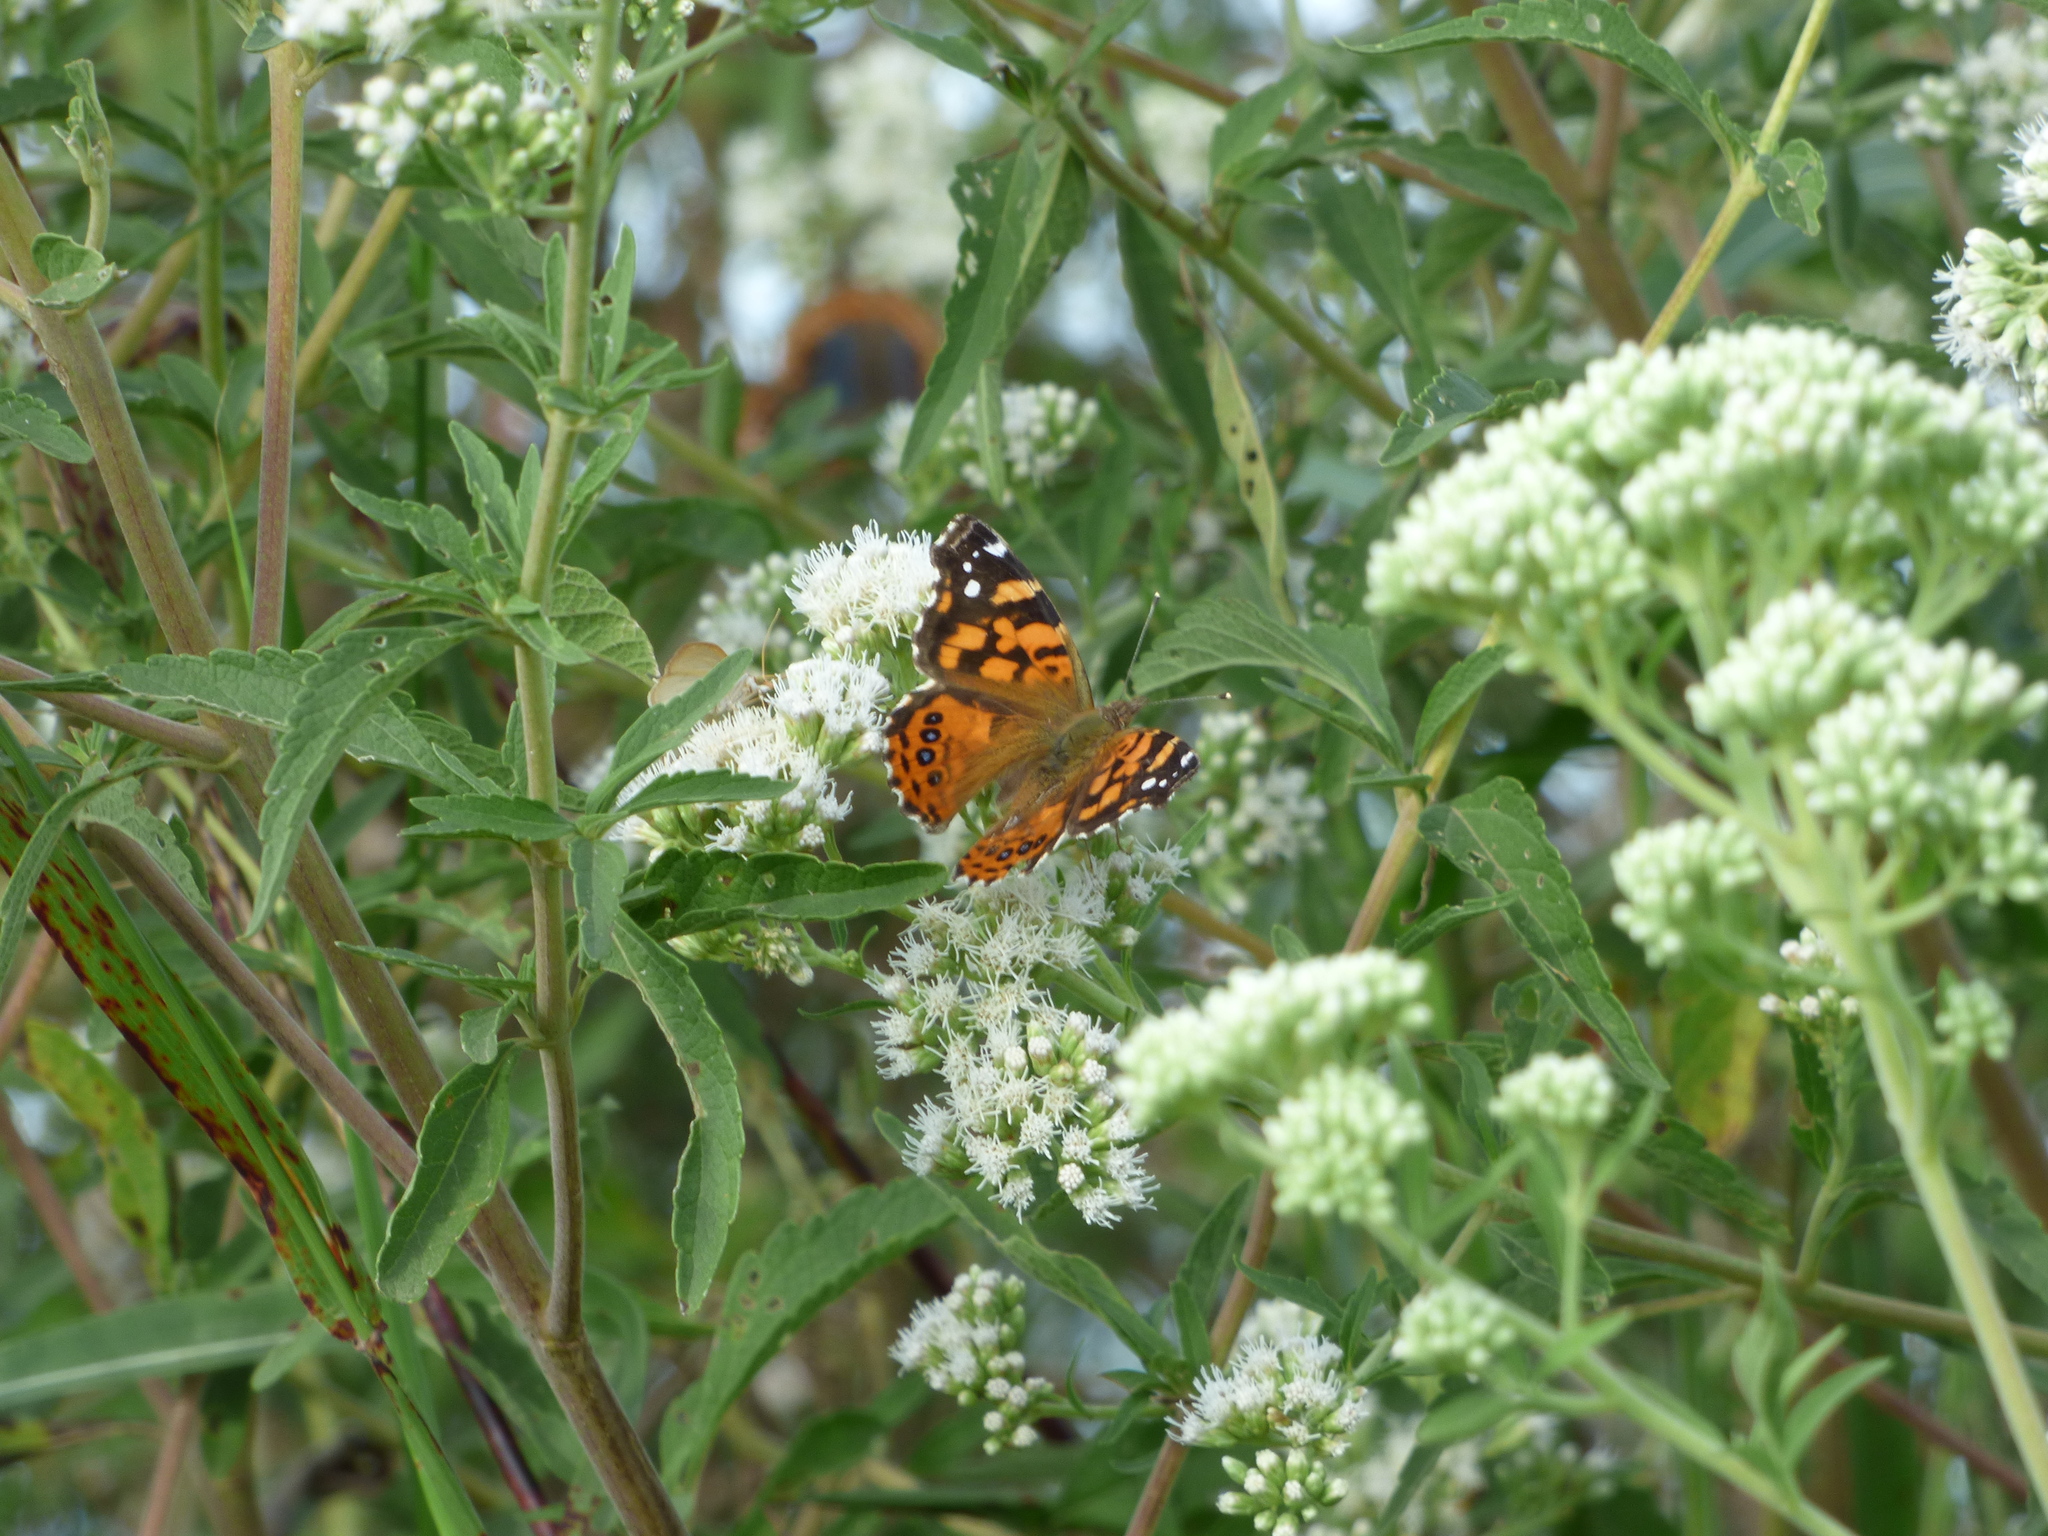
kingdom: Animalia
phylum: Arthropoda
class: Insecta
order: Lepidoptera
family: Nymphalidae
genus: Vanessa
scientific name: Vanessa carye
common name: Subtropical lady
